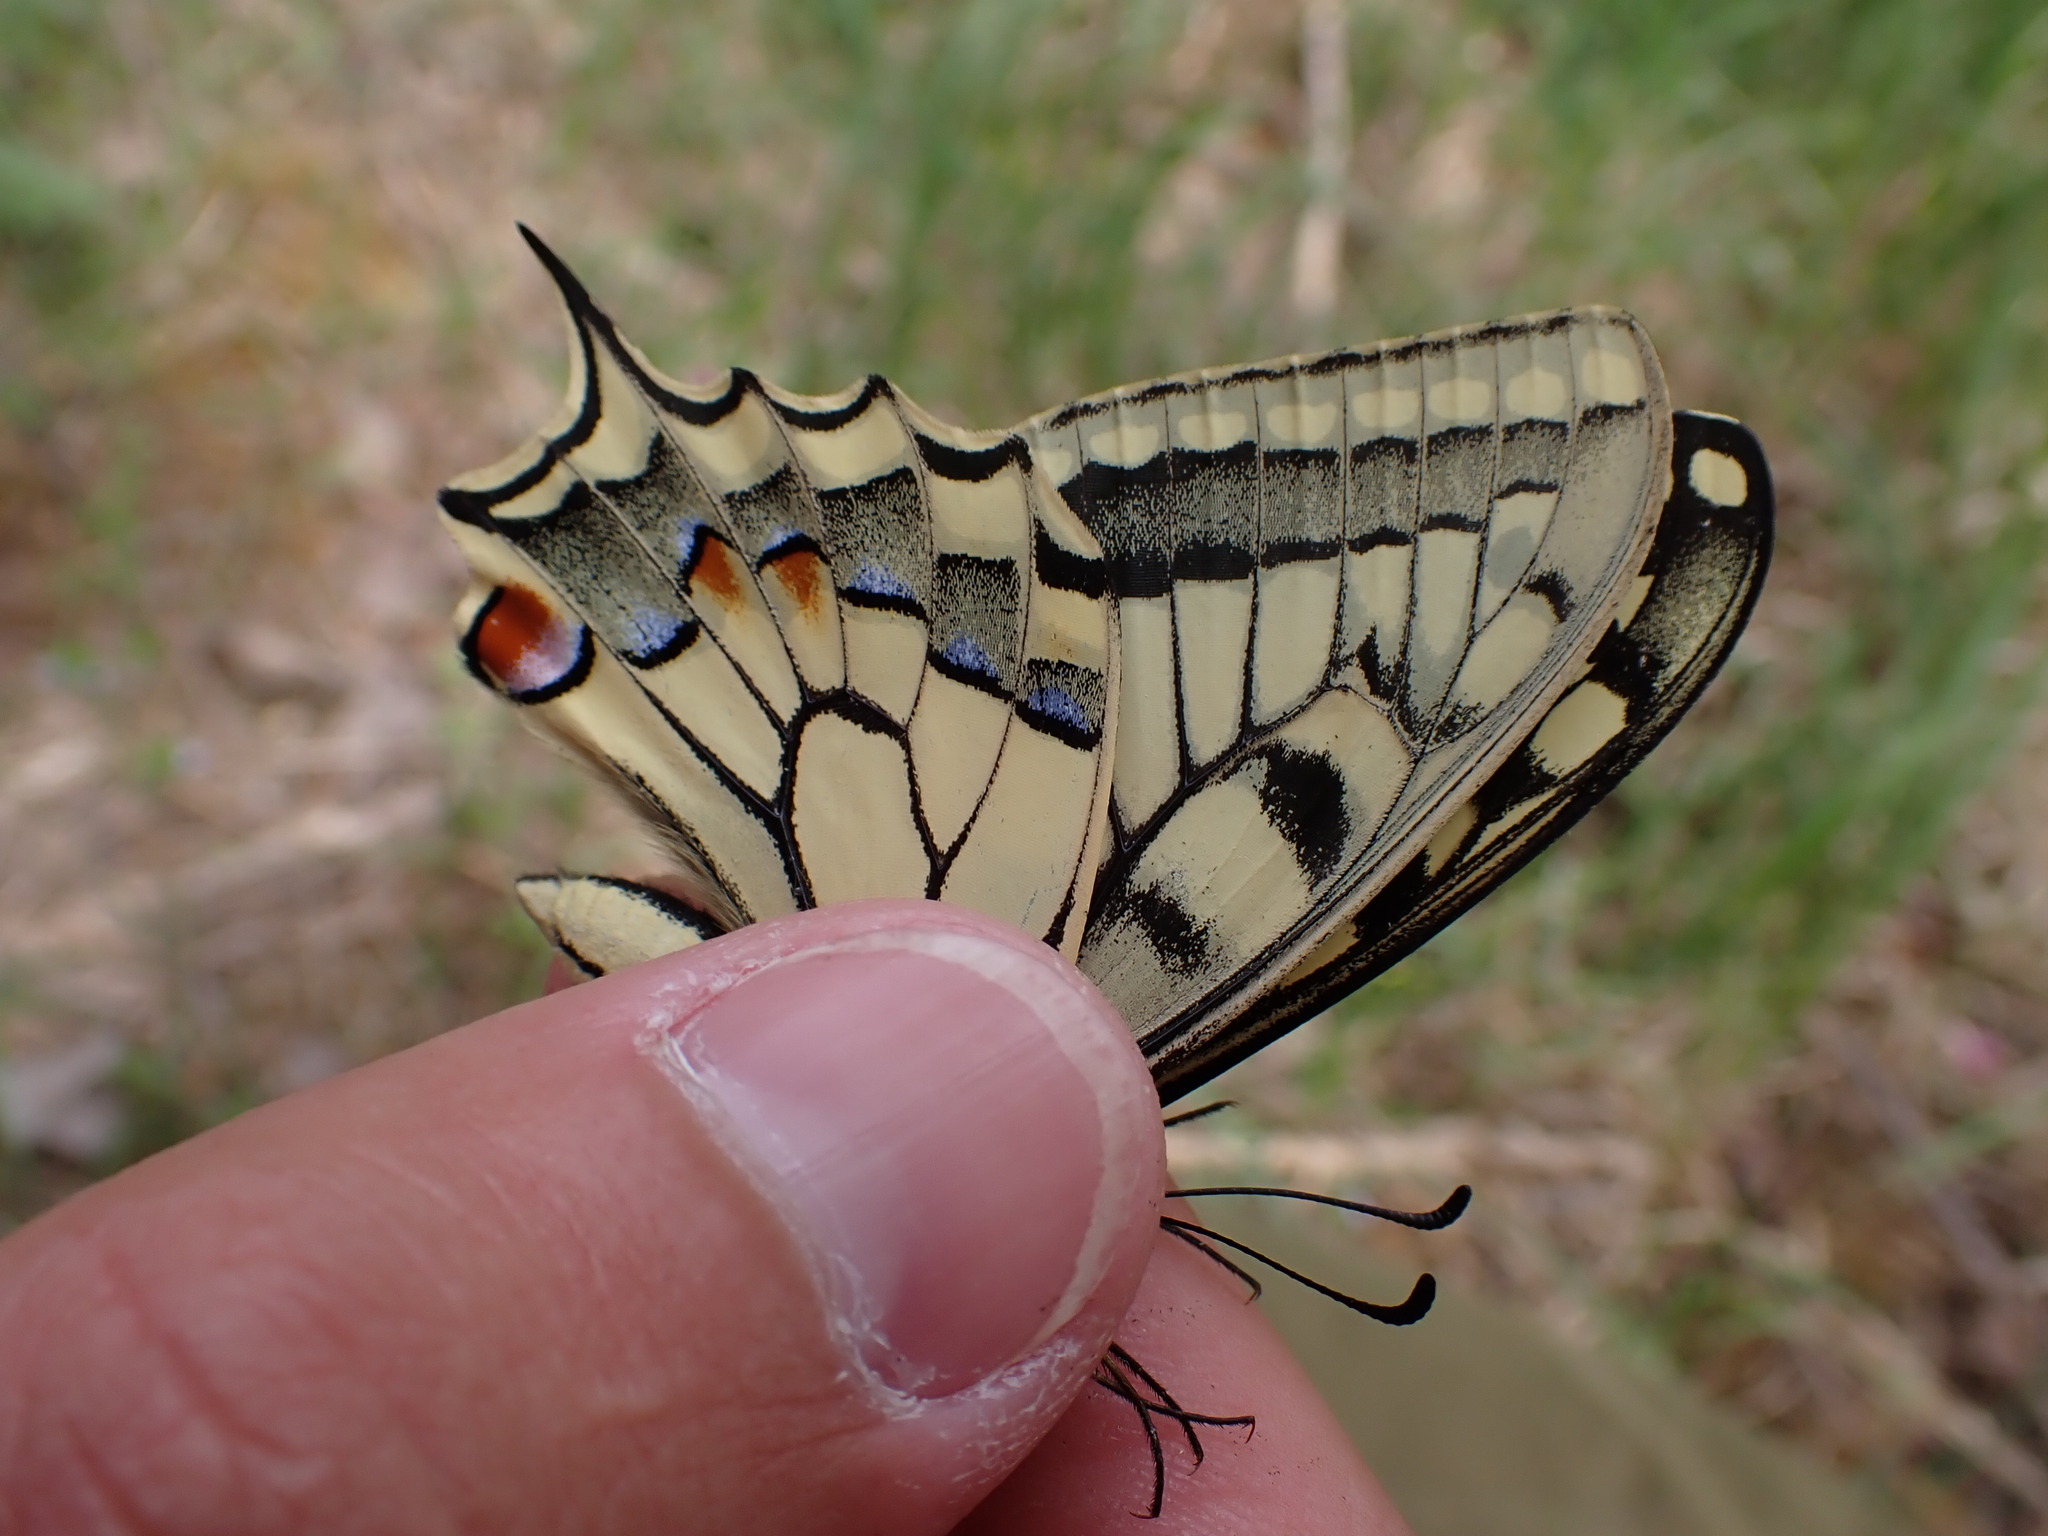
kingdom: Animalia
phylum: Arthropoda
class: Insecta
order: Lepidoptera
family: Papilionidae
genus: Papilio
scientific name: Papilio machaon
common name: Swallowtail
